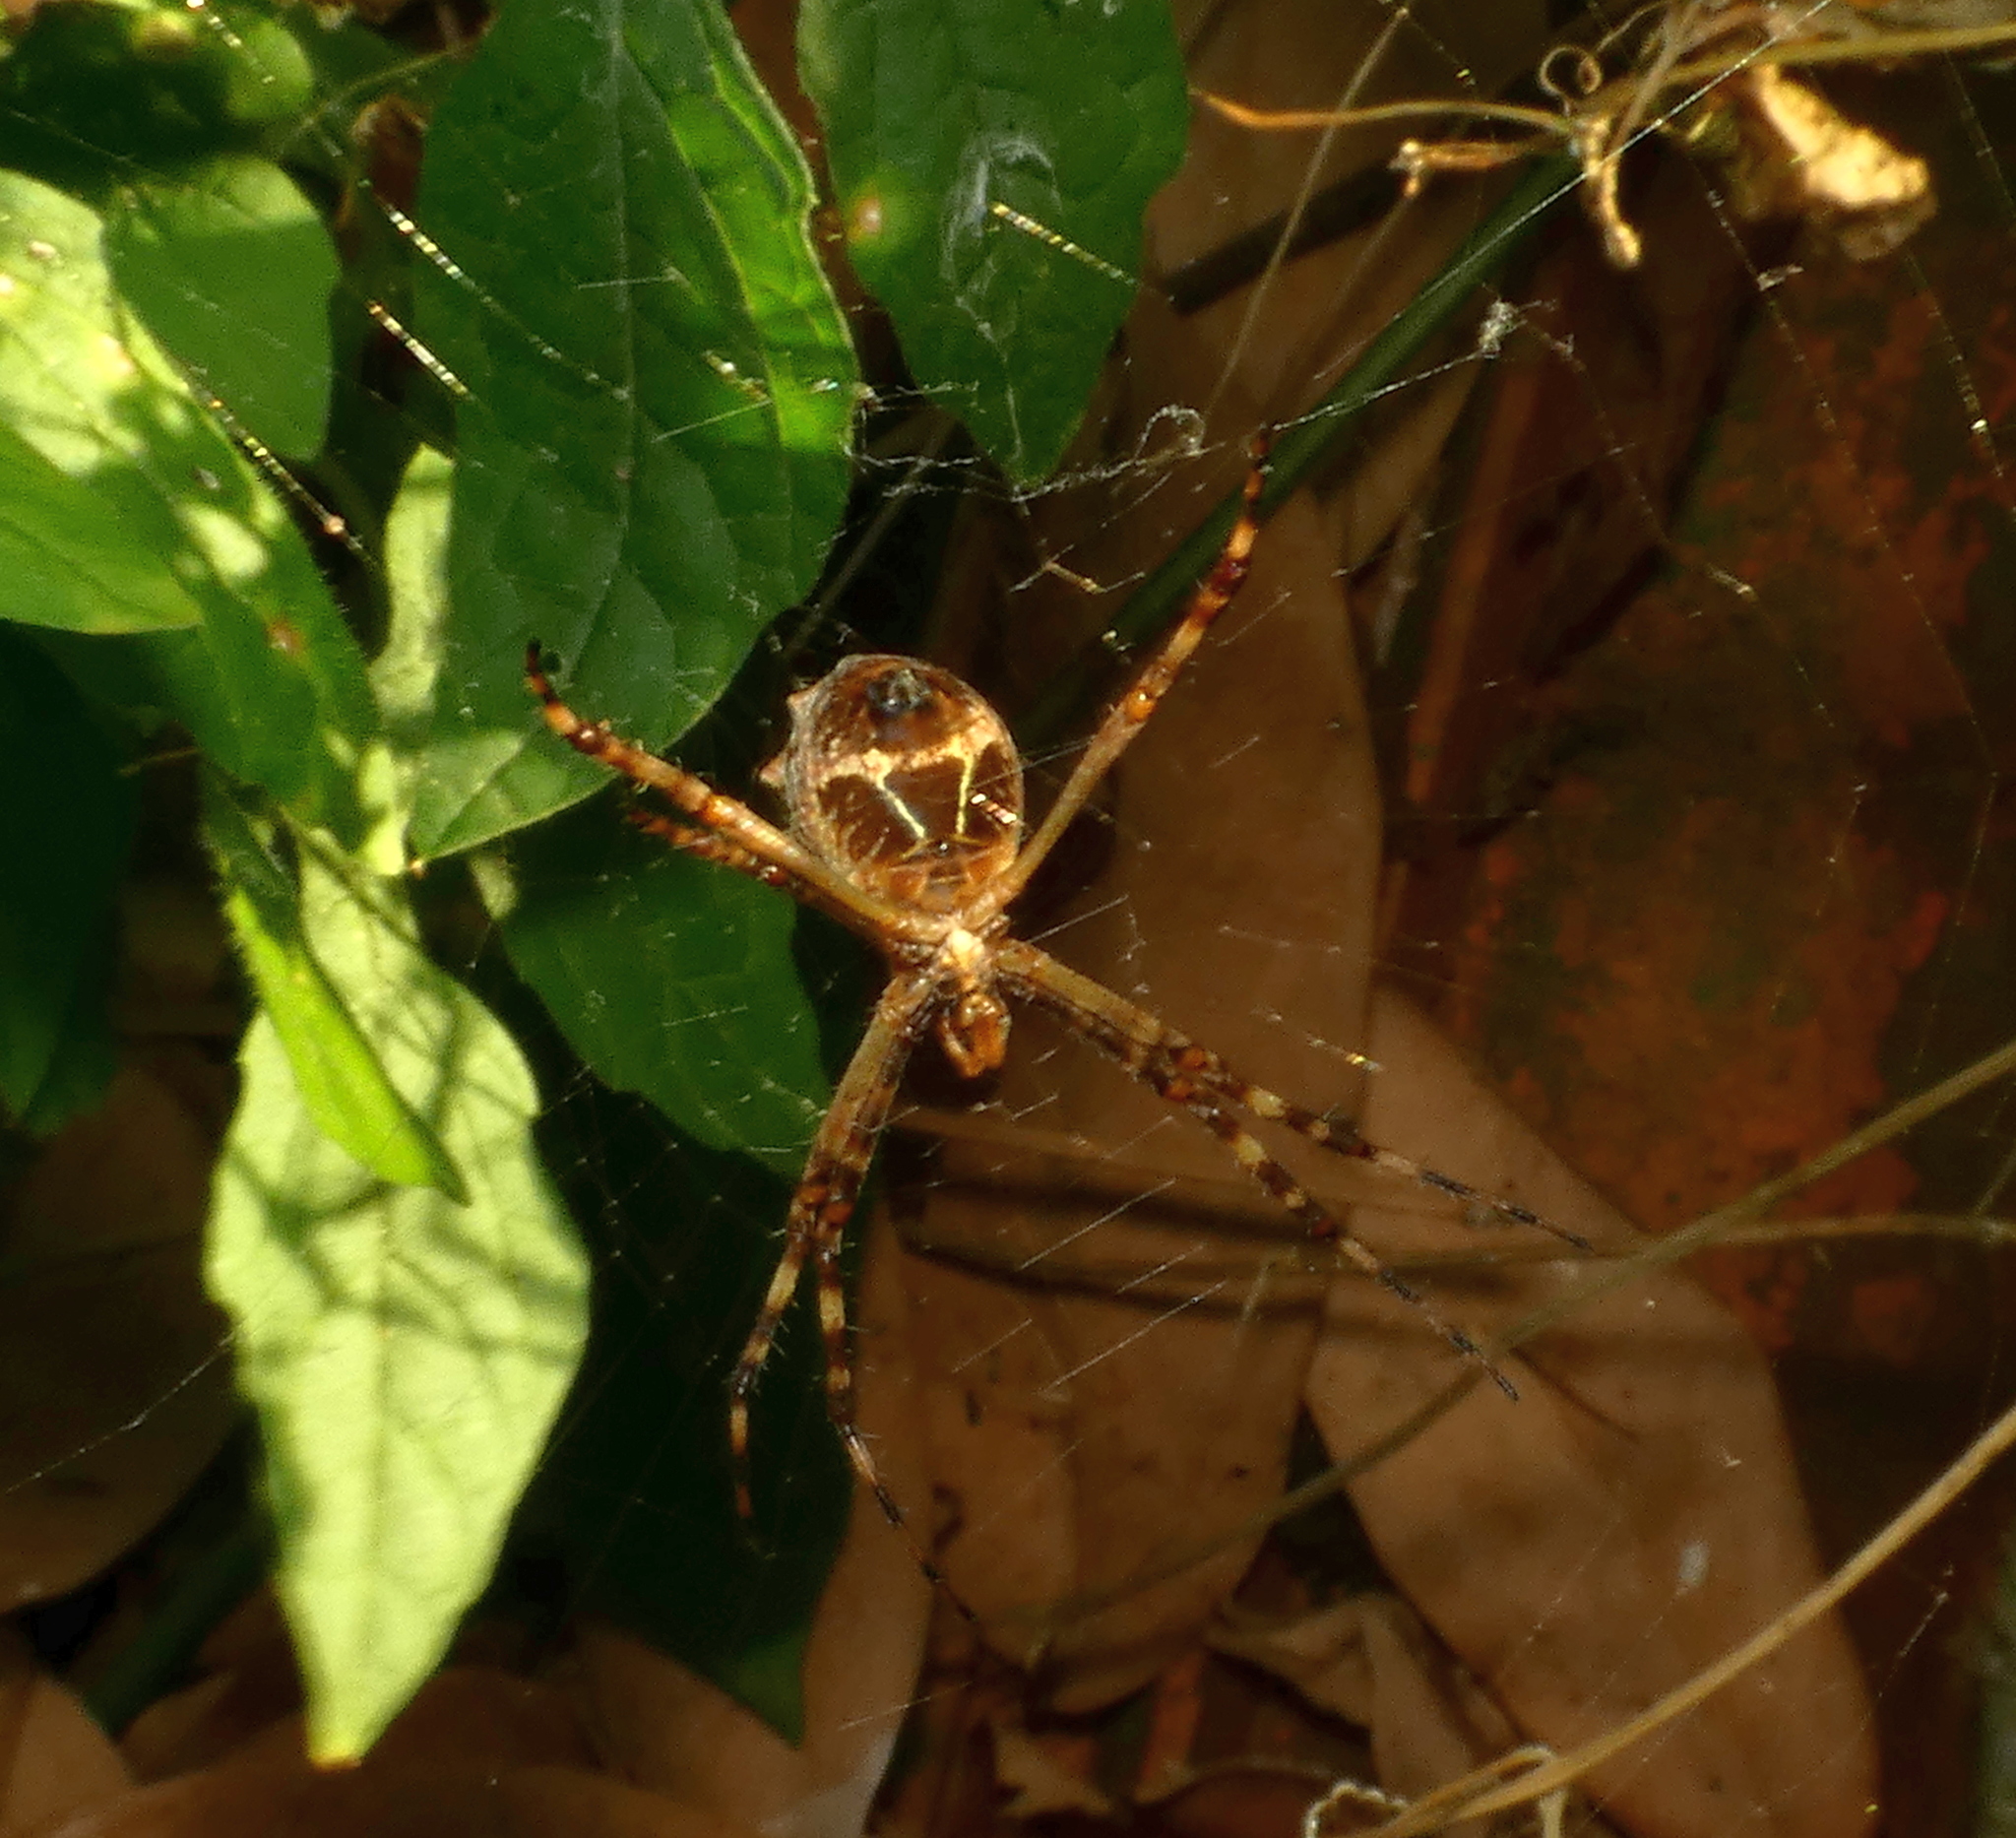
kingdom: Animalia
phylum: Arthropoda
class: Arachnida
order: Araneae
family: Araneidae
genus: Argiope
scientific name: Argiope argentata
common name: Orb weavers
